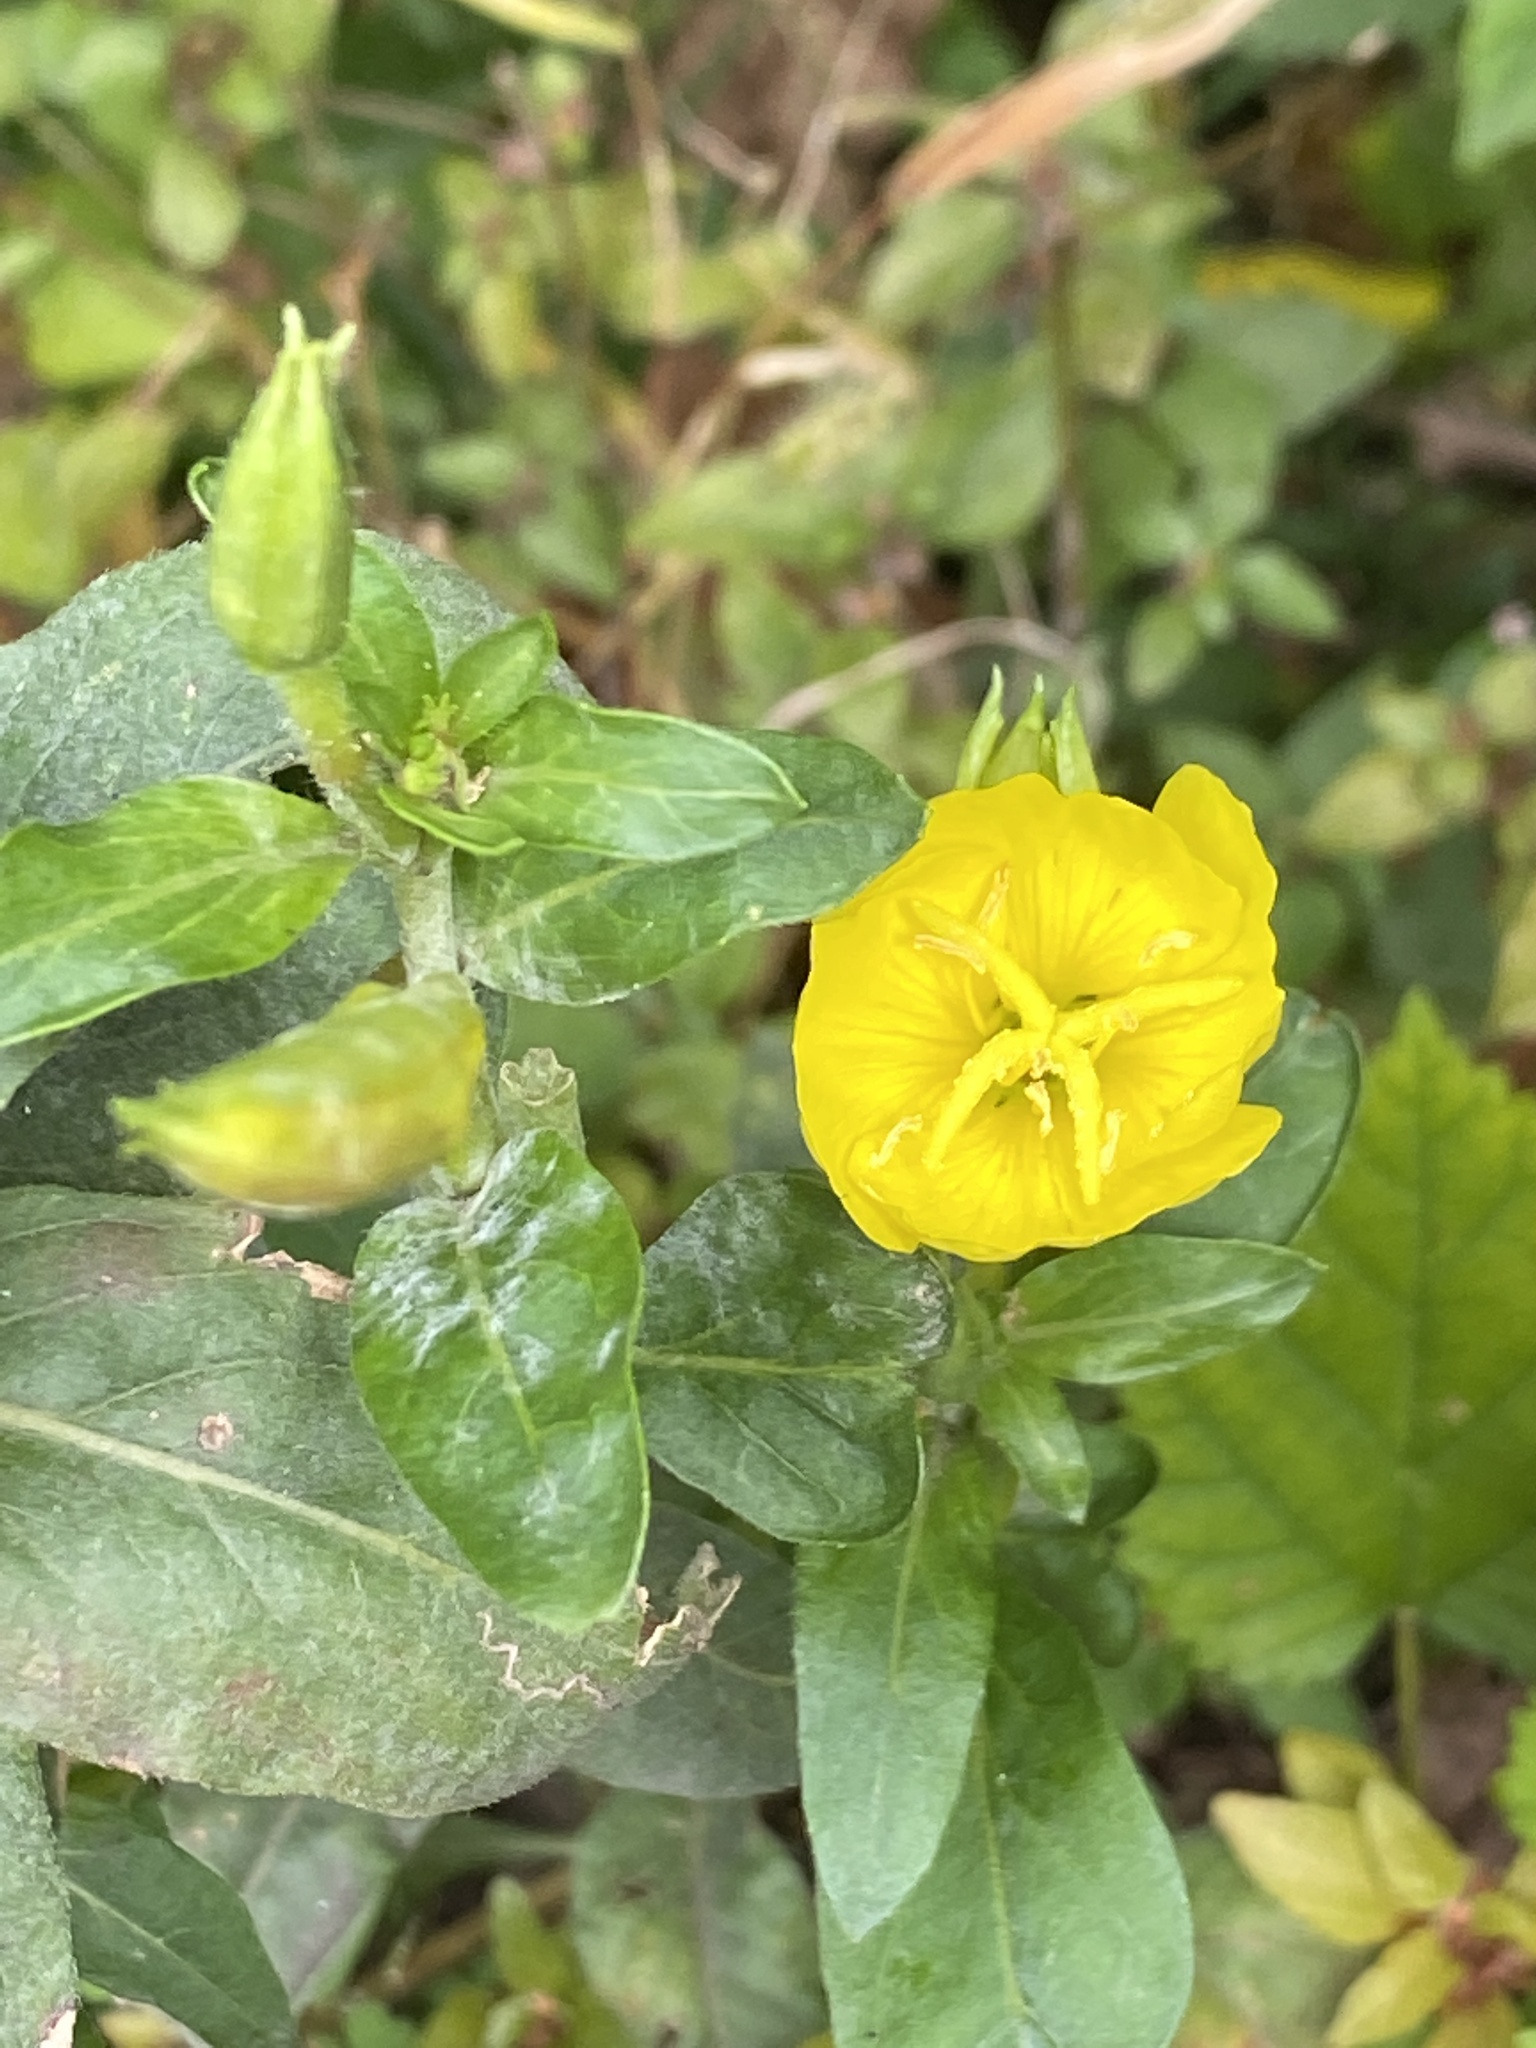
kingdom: Plantae
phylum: Tracheophyta
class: Magnoliopsida
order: Myrtales
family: Onagraceae
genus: Oenothera
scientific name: Oenothera biennis
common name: Common evening-primrose
